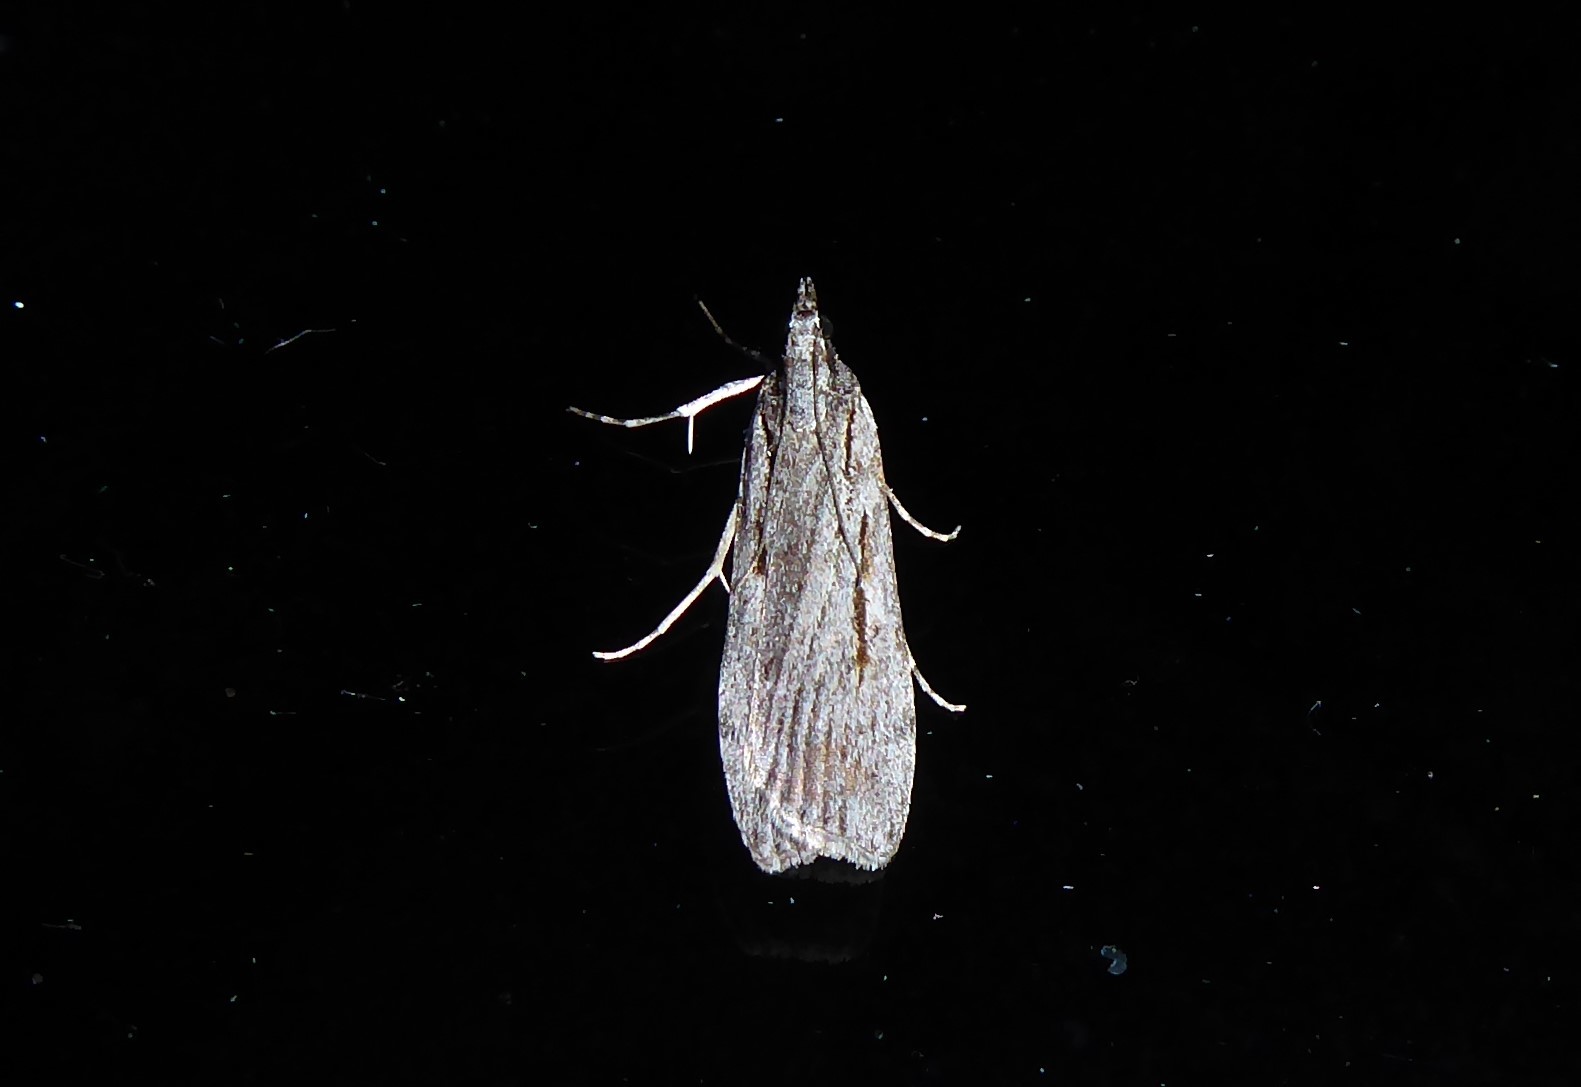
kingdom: Animalia
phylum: Arthropoda
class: Insecta
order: Lepidoptera
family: Crambidae
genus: Scoparia
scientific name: Scoparia indistinctalis
